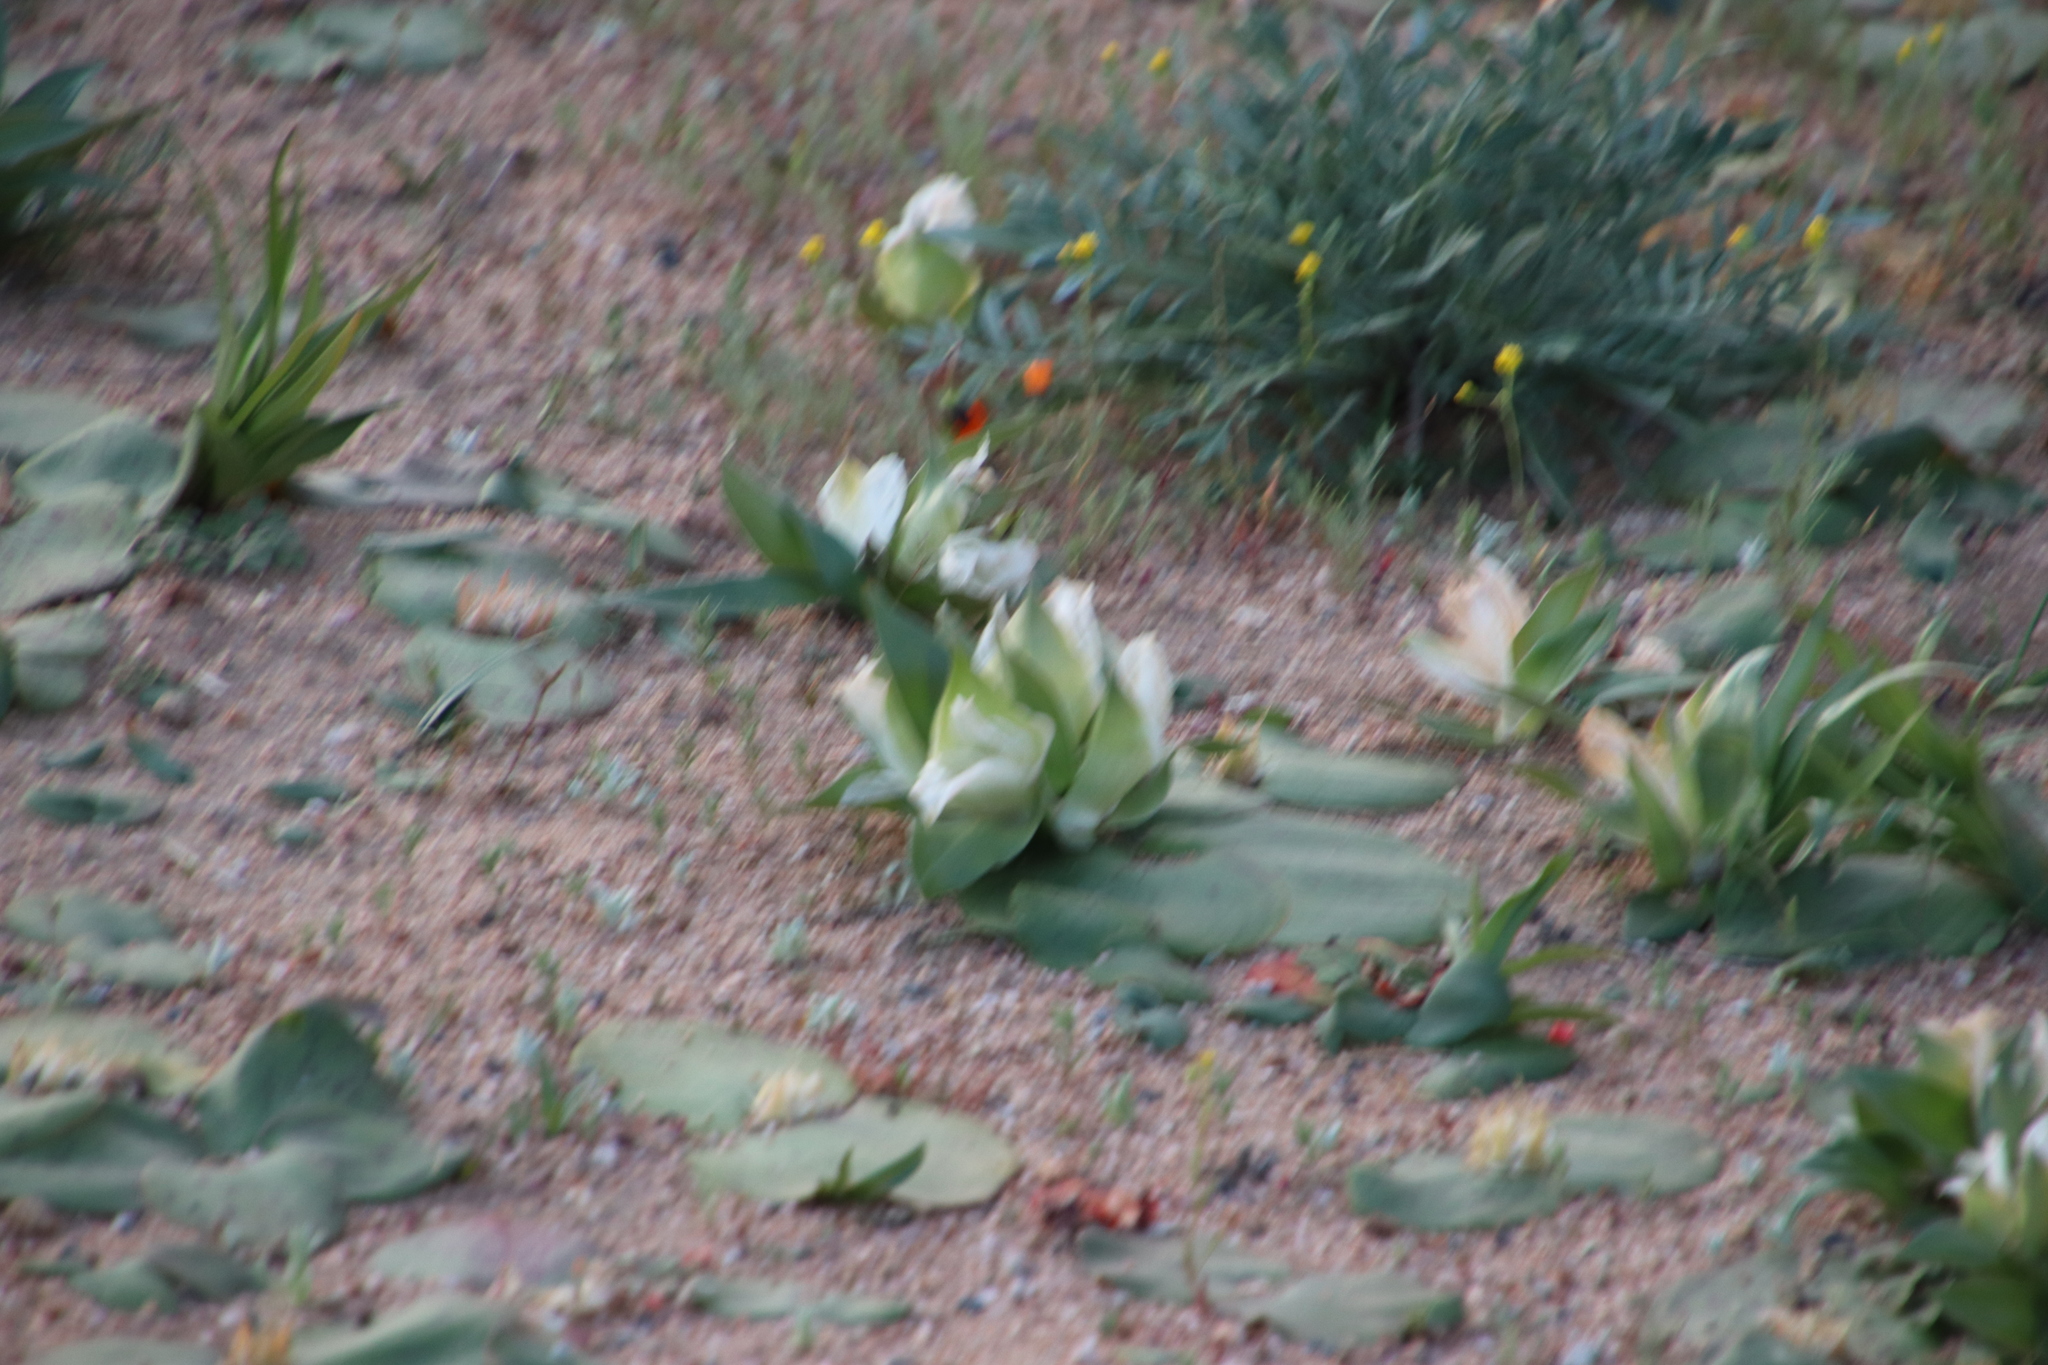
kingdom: Plantae
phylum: Tracheophyta
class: Liliopsida
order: Liliales
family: Colchicaceae
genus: Colchicum
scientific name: Colchicum capense
